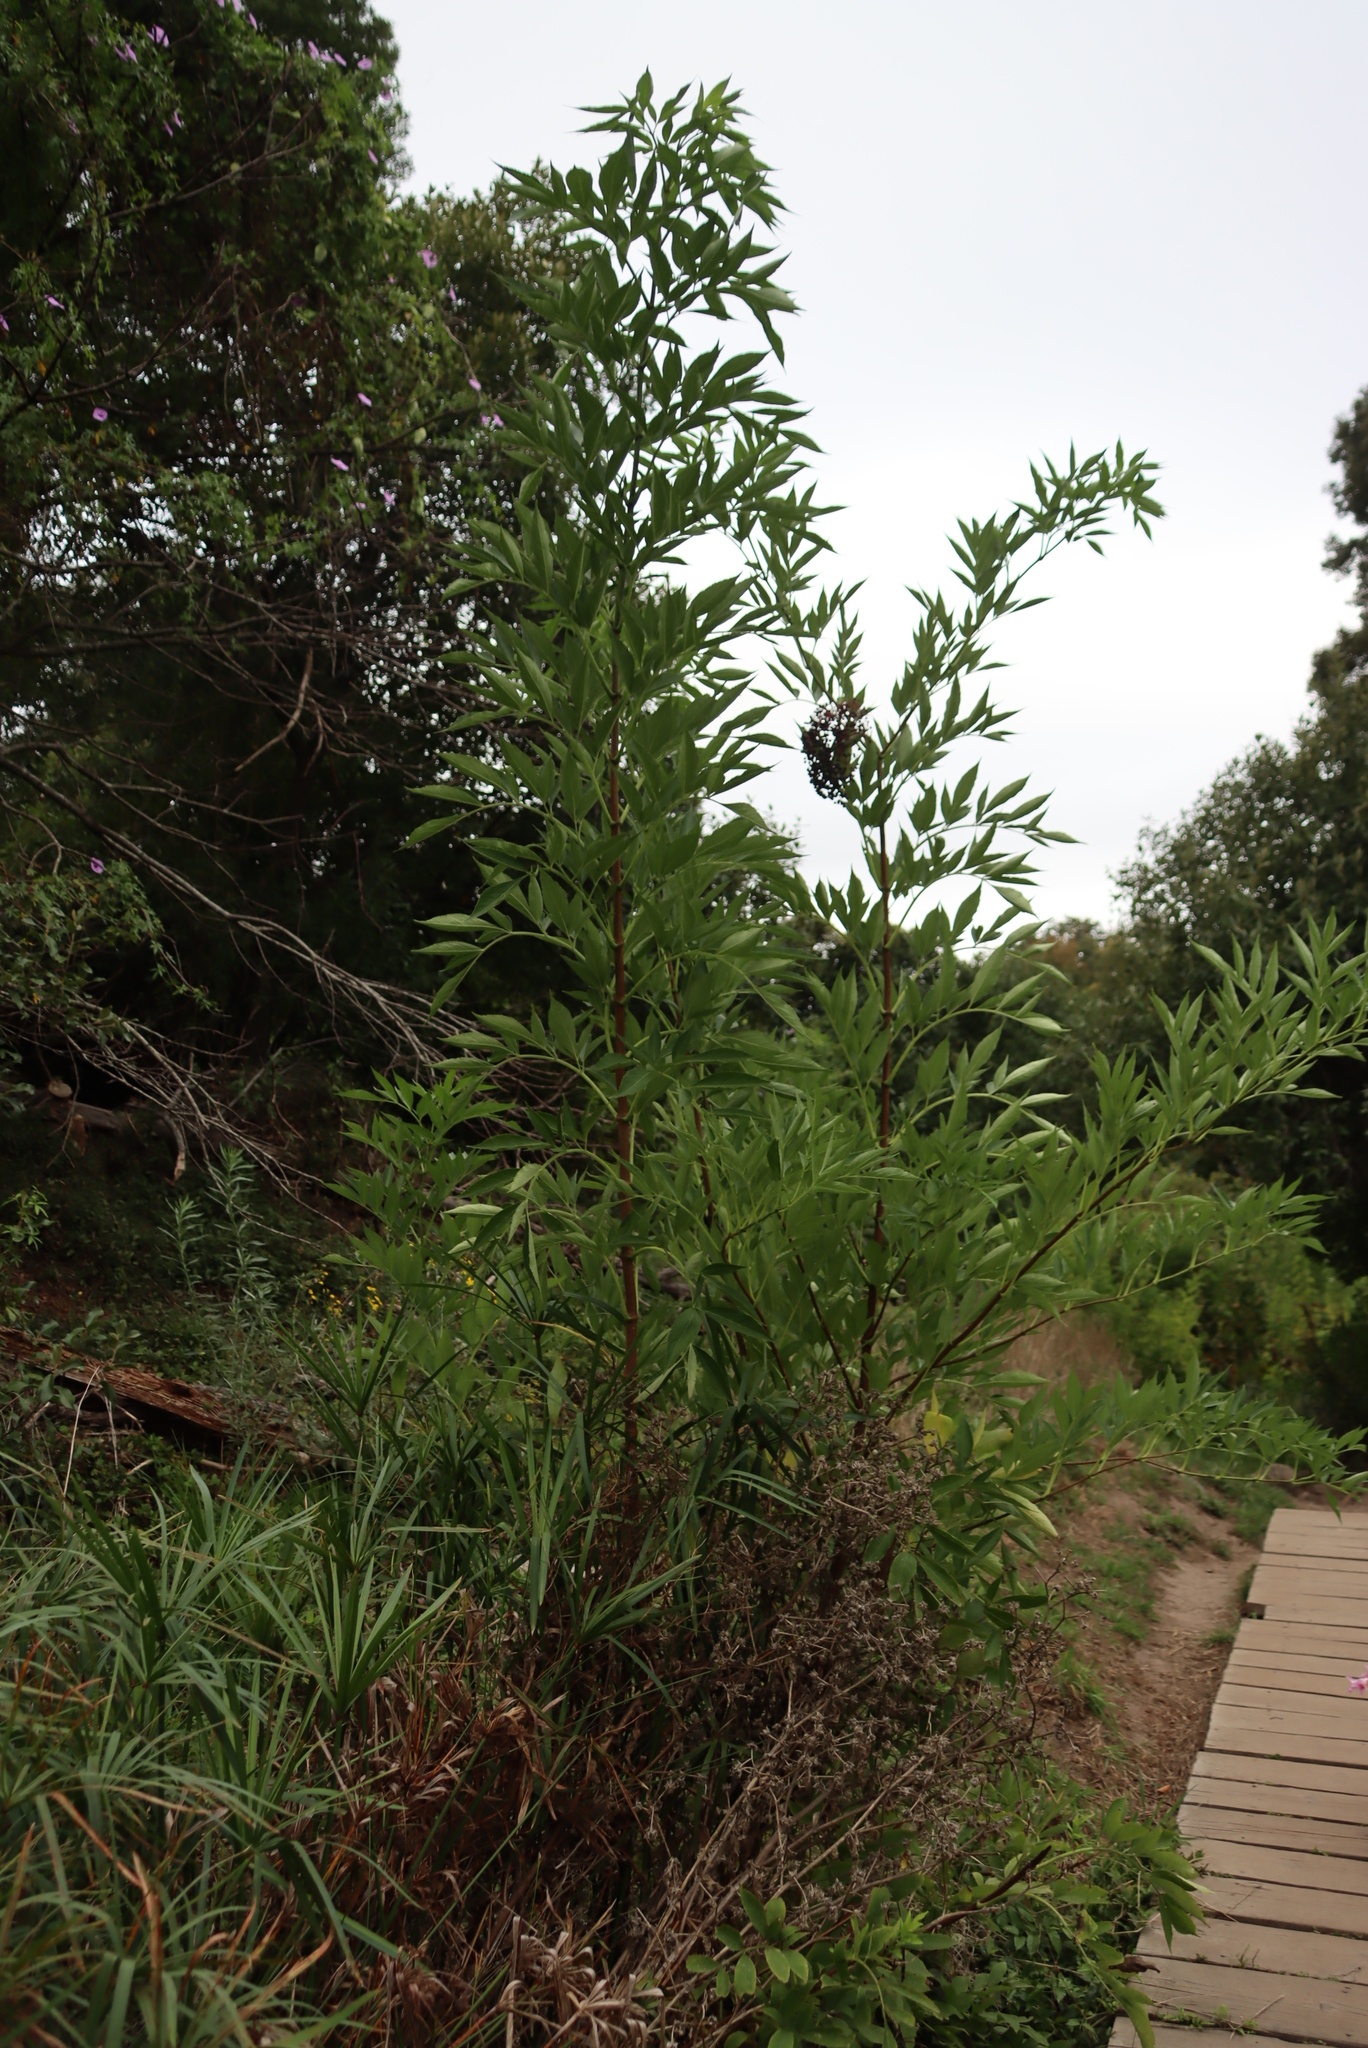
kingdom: Plantae
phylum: Tracheophyta
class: Magnoliopsida
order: Dipsacales
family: Viburnaceae
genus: Sambucus
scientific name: Sambucus canadensis
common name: American elder
